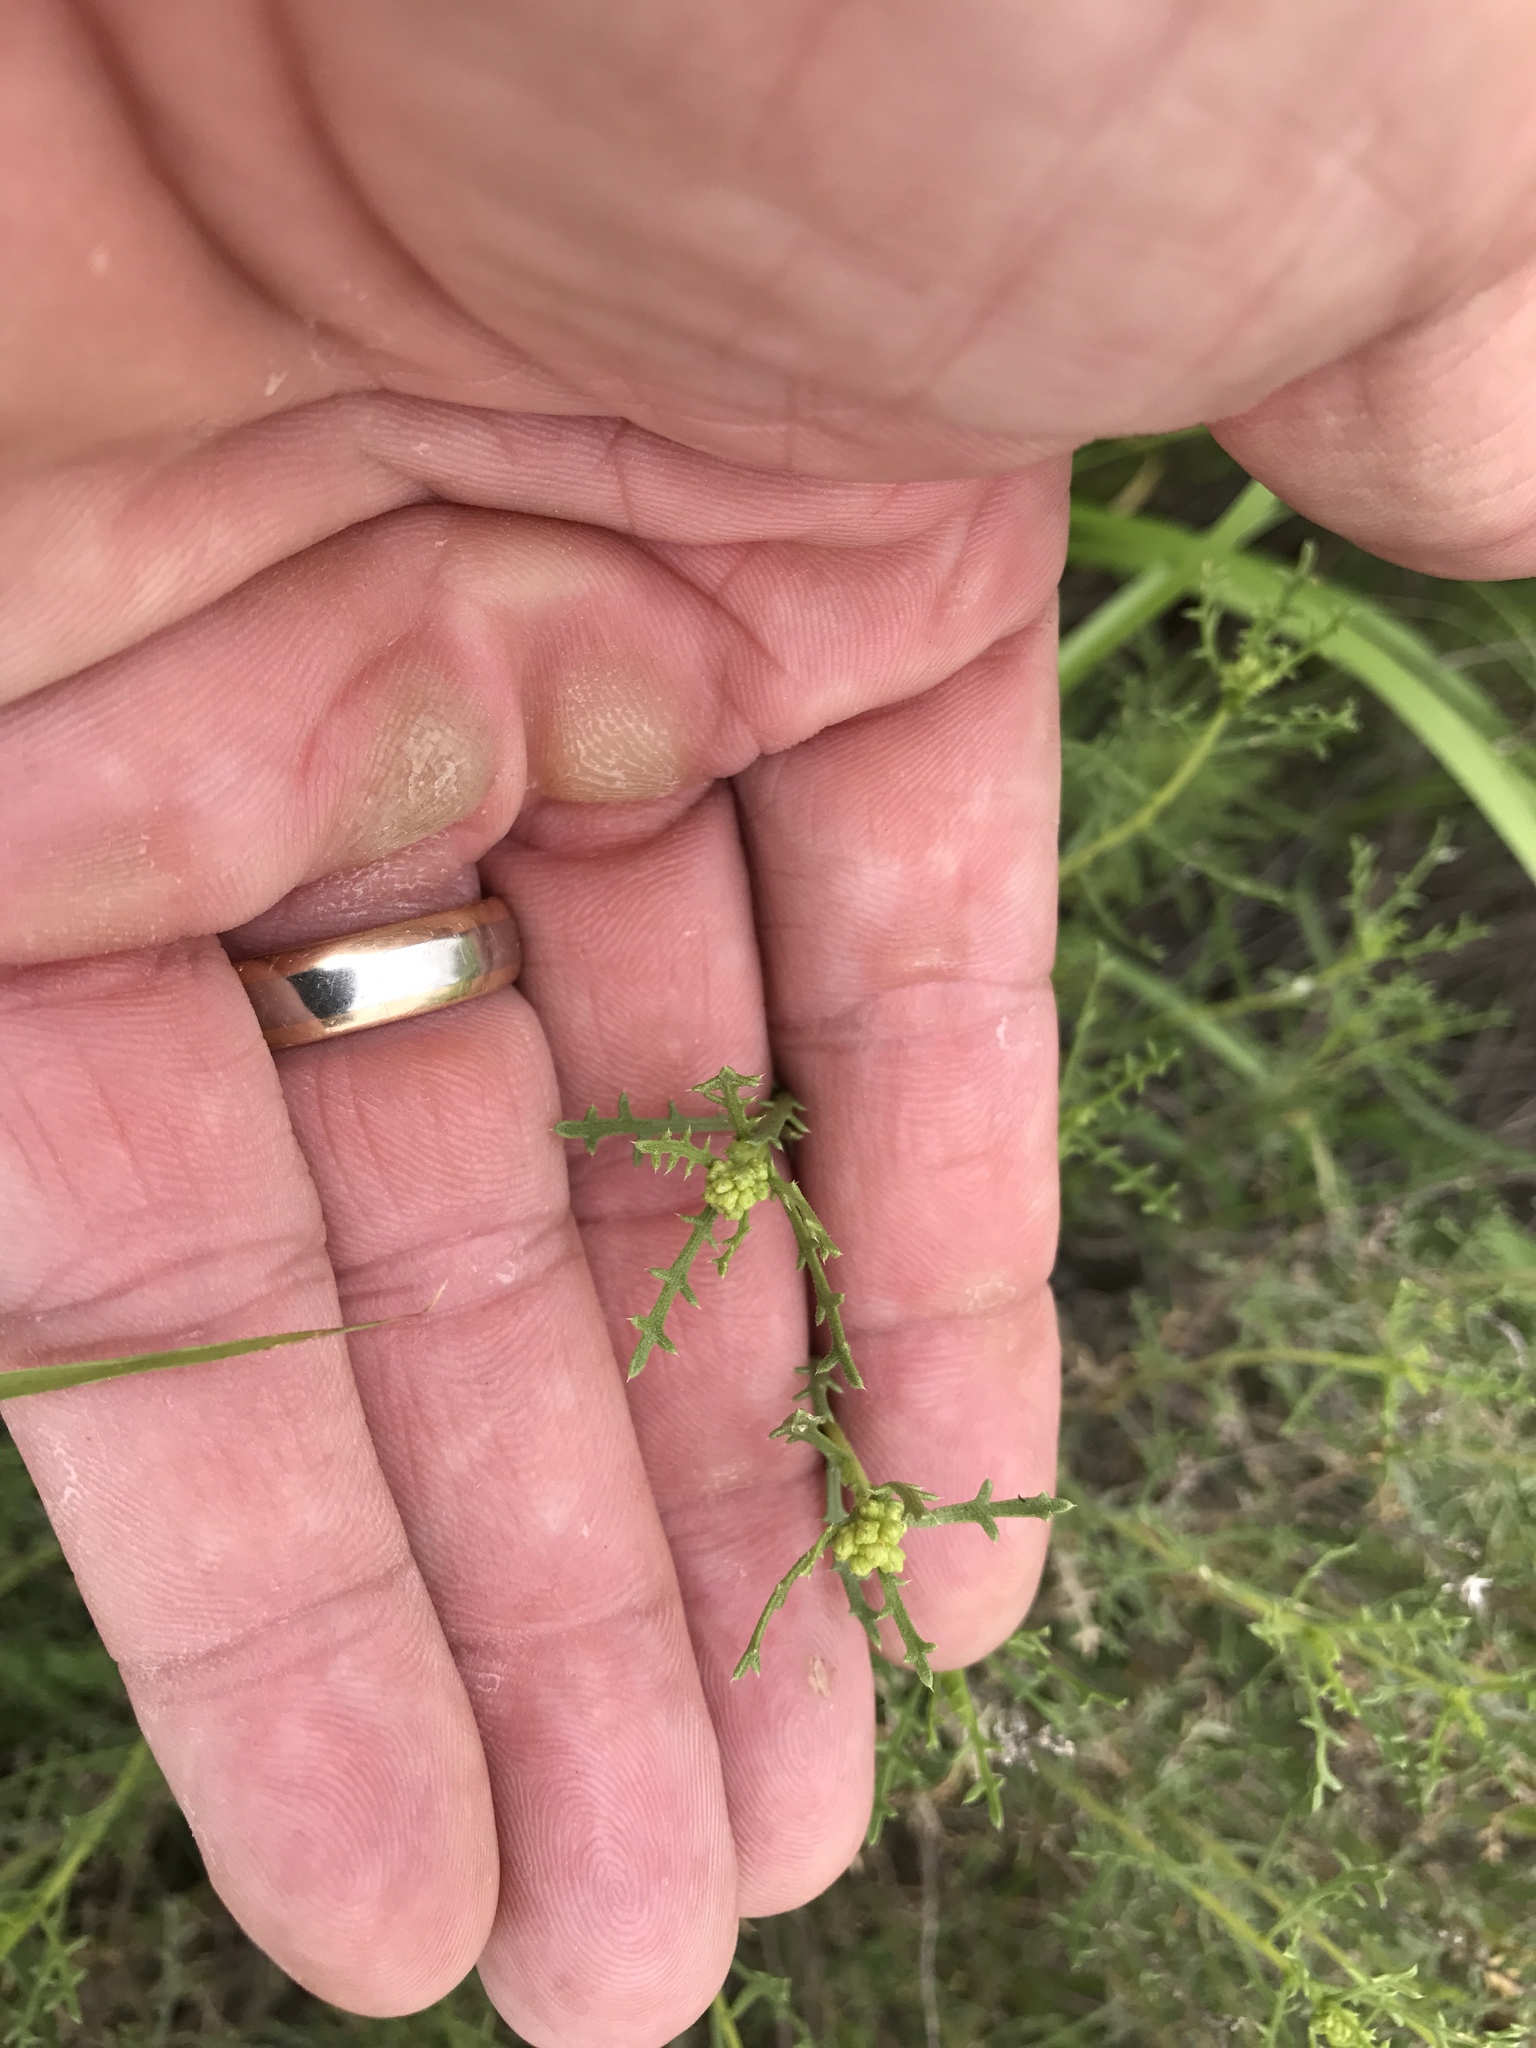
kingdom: Plantae
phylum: Tracheophyta
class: Magnoliopsida
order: Asterales
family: Asteraceae
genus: Isocoma
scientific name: Isocoma tenuisecta
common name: Burroweed
